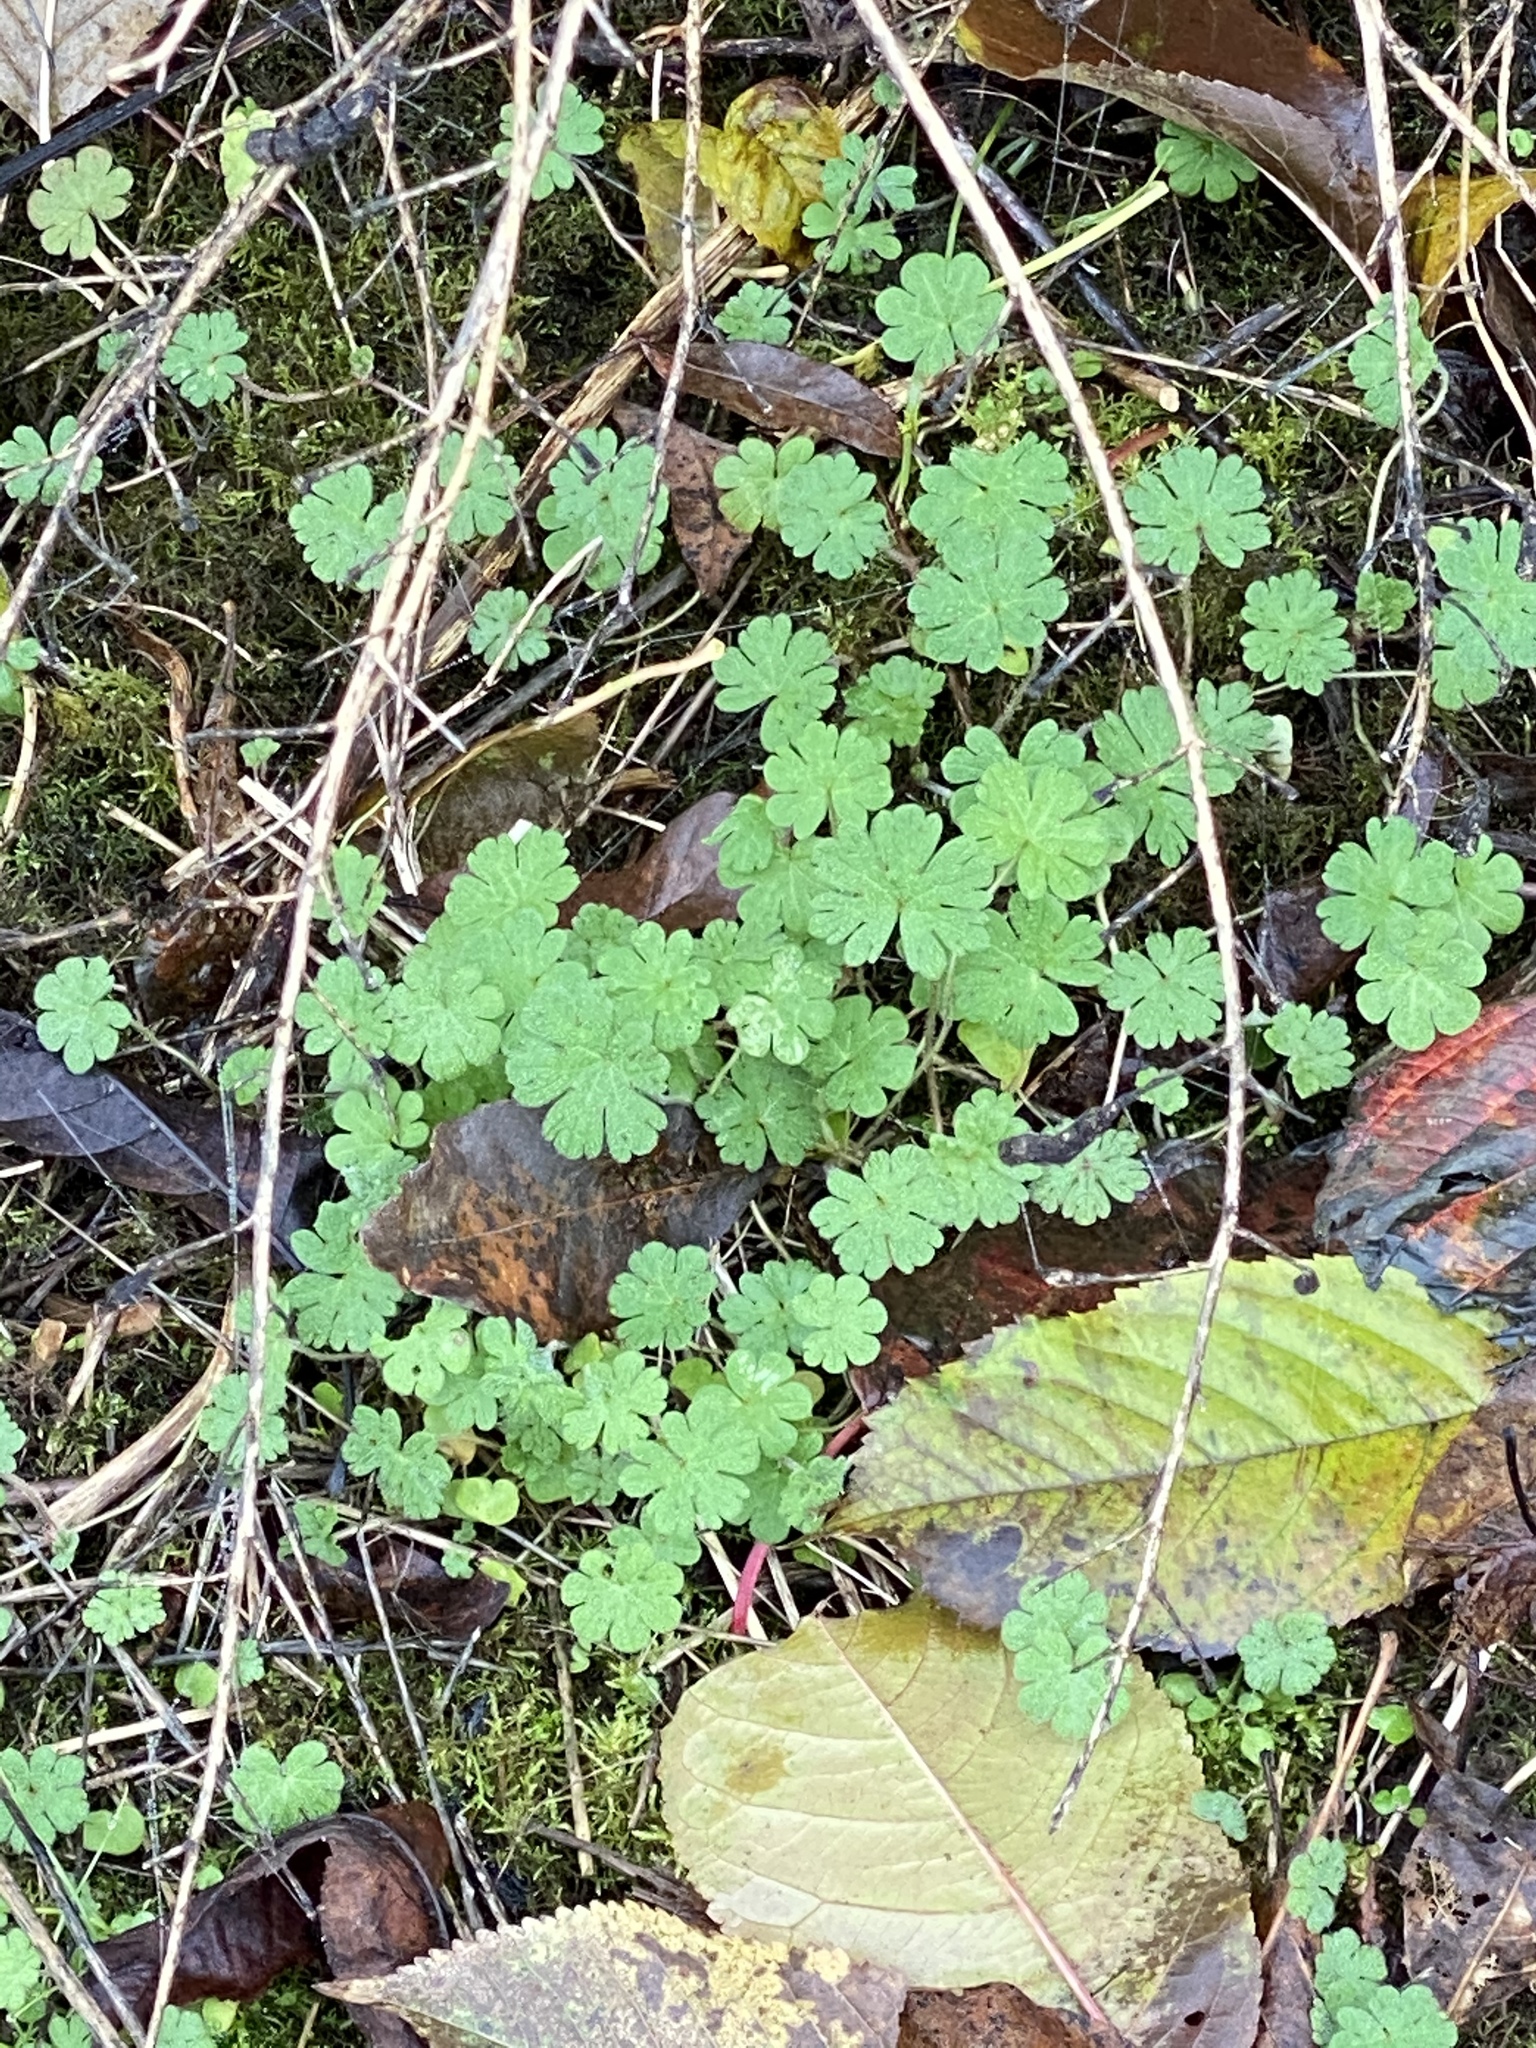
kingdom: Plantae
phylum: Tracheophyta
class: Magnoliopsida
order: Geraniales
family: Geraniaceae
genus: Geranium
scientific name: Geranium lucidum
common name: Shining crane's-bill
